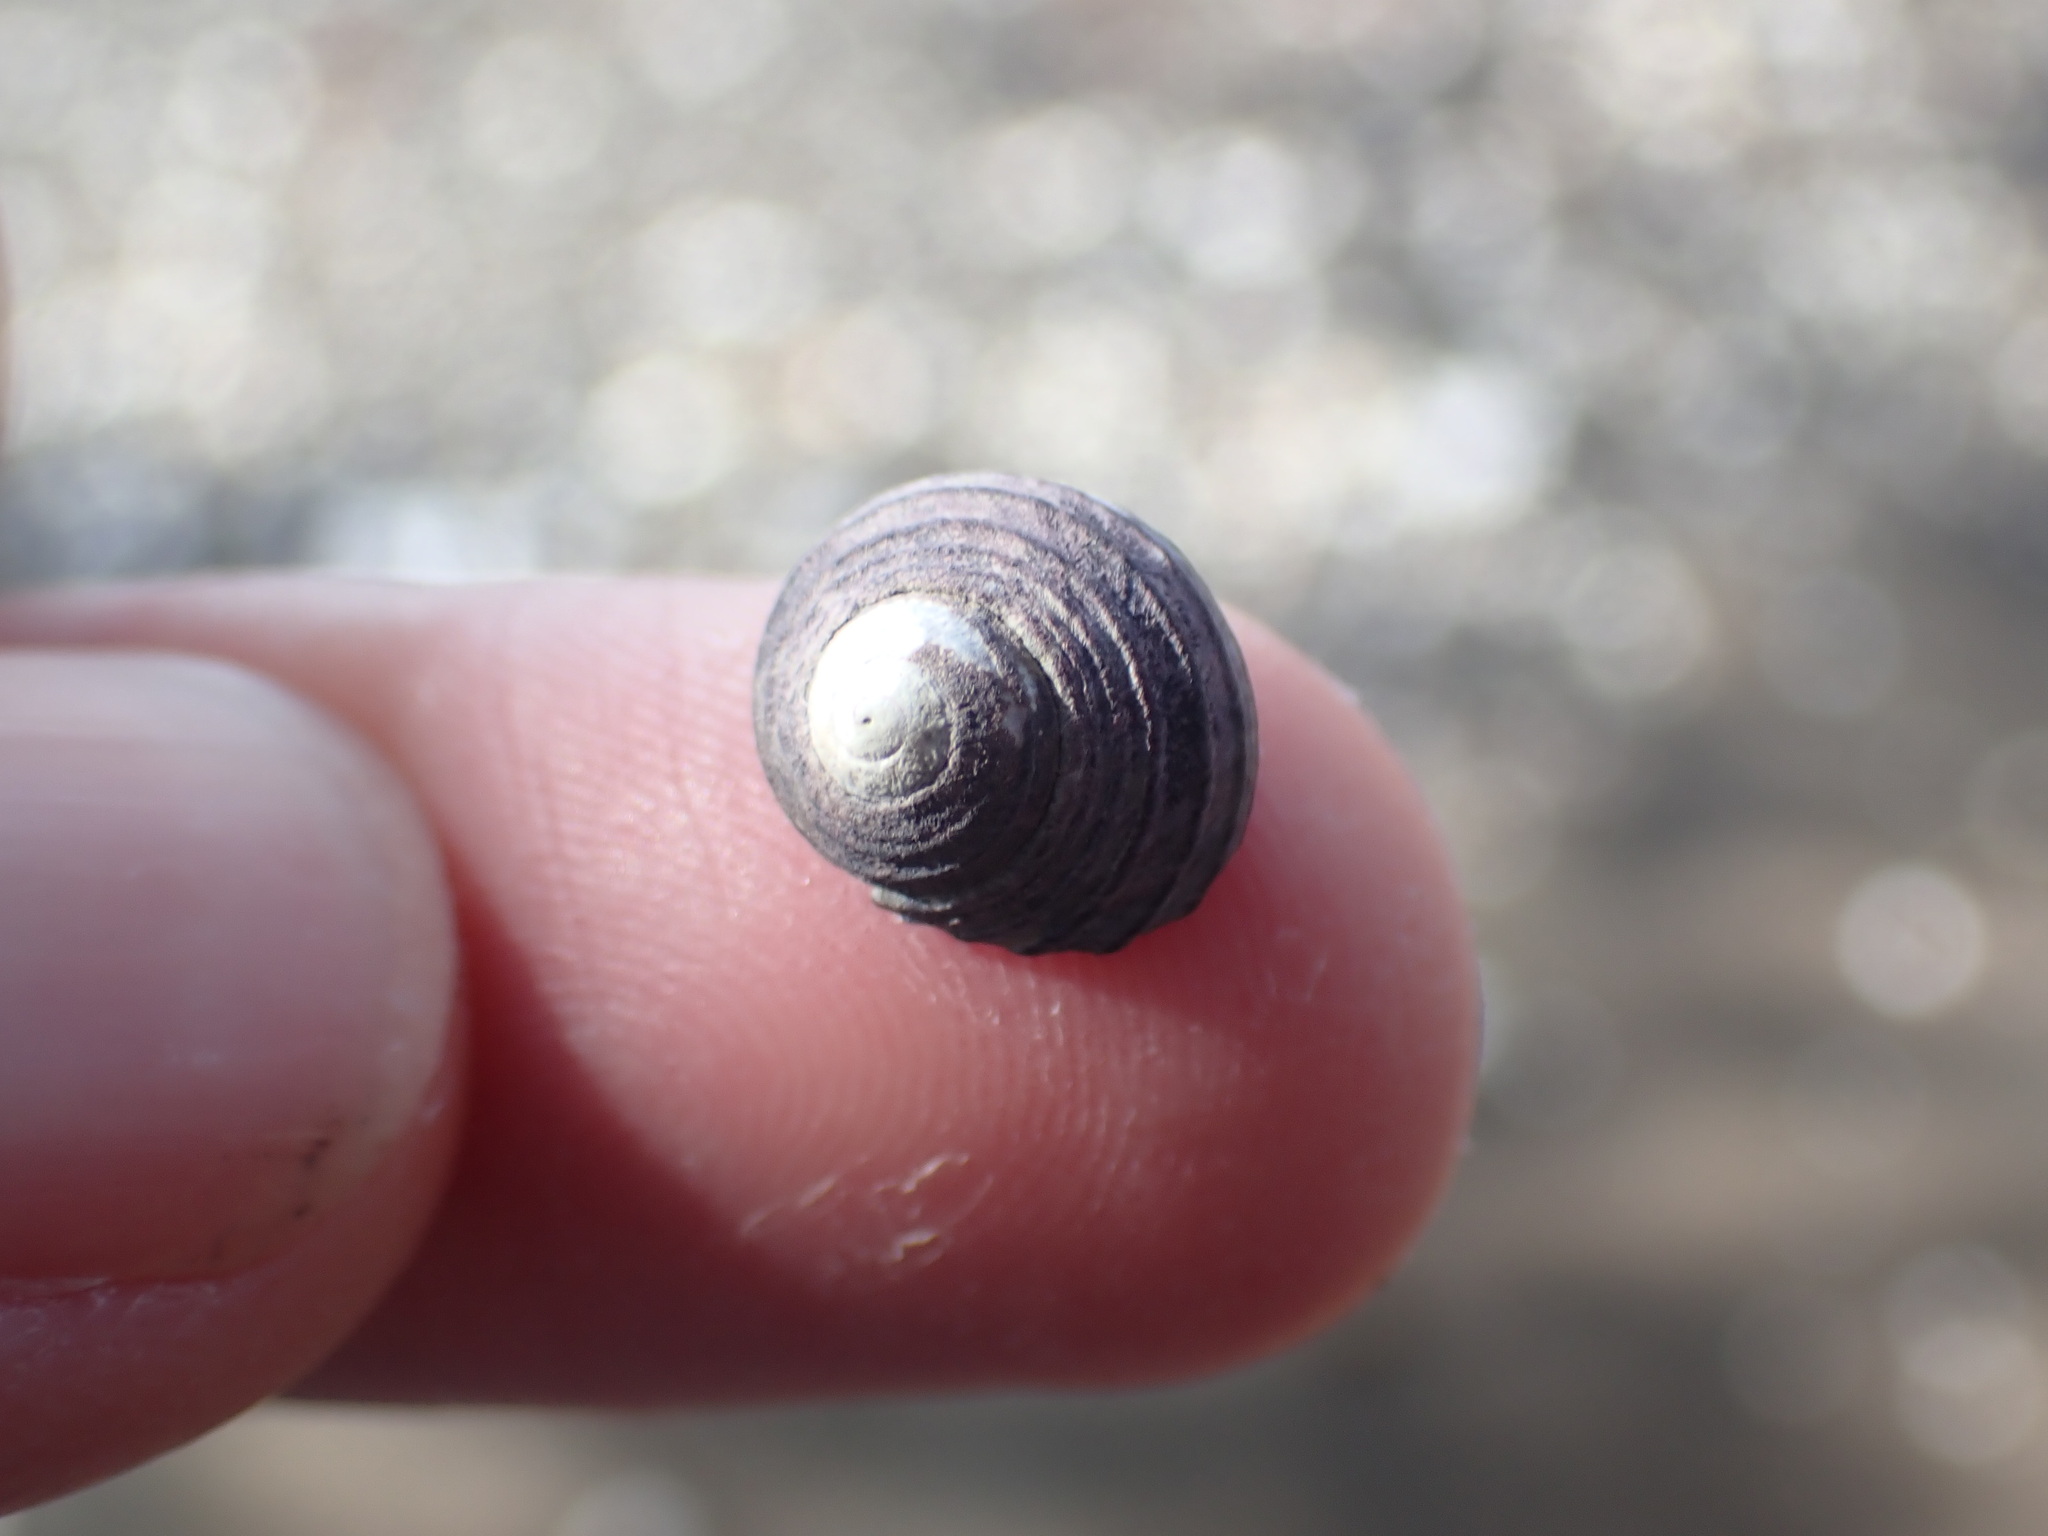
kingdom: Animalia
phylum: Mollusca
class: Gastropoda
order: Trochida
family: Trochidae
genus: Diloma
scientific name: Diloma subrostratum
